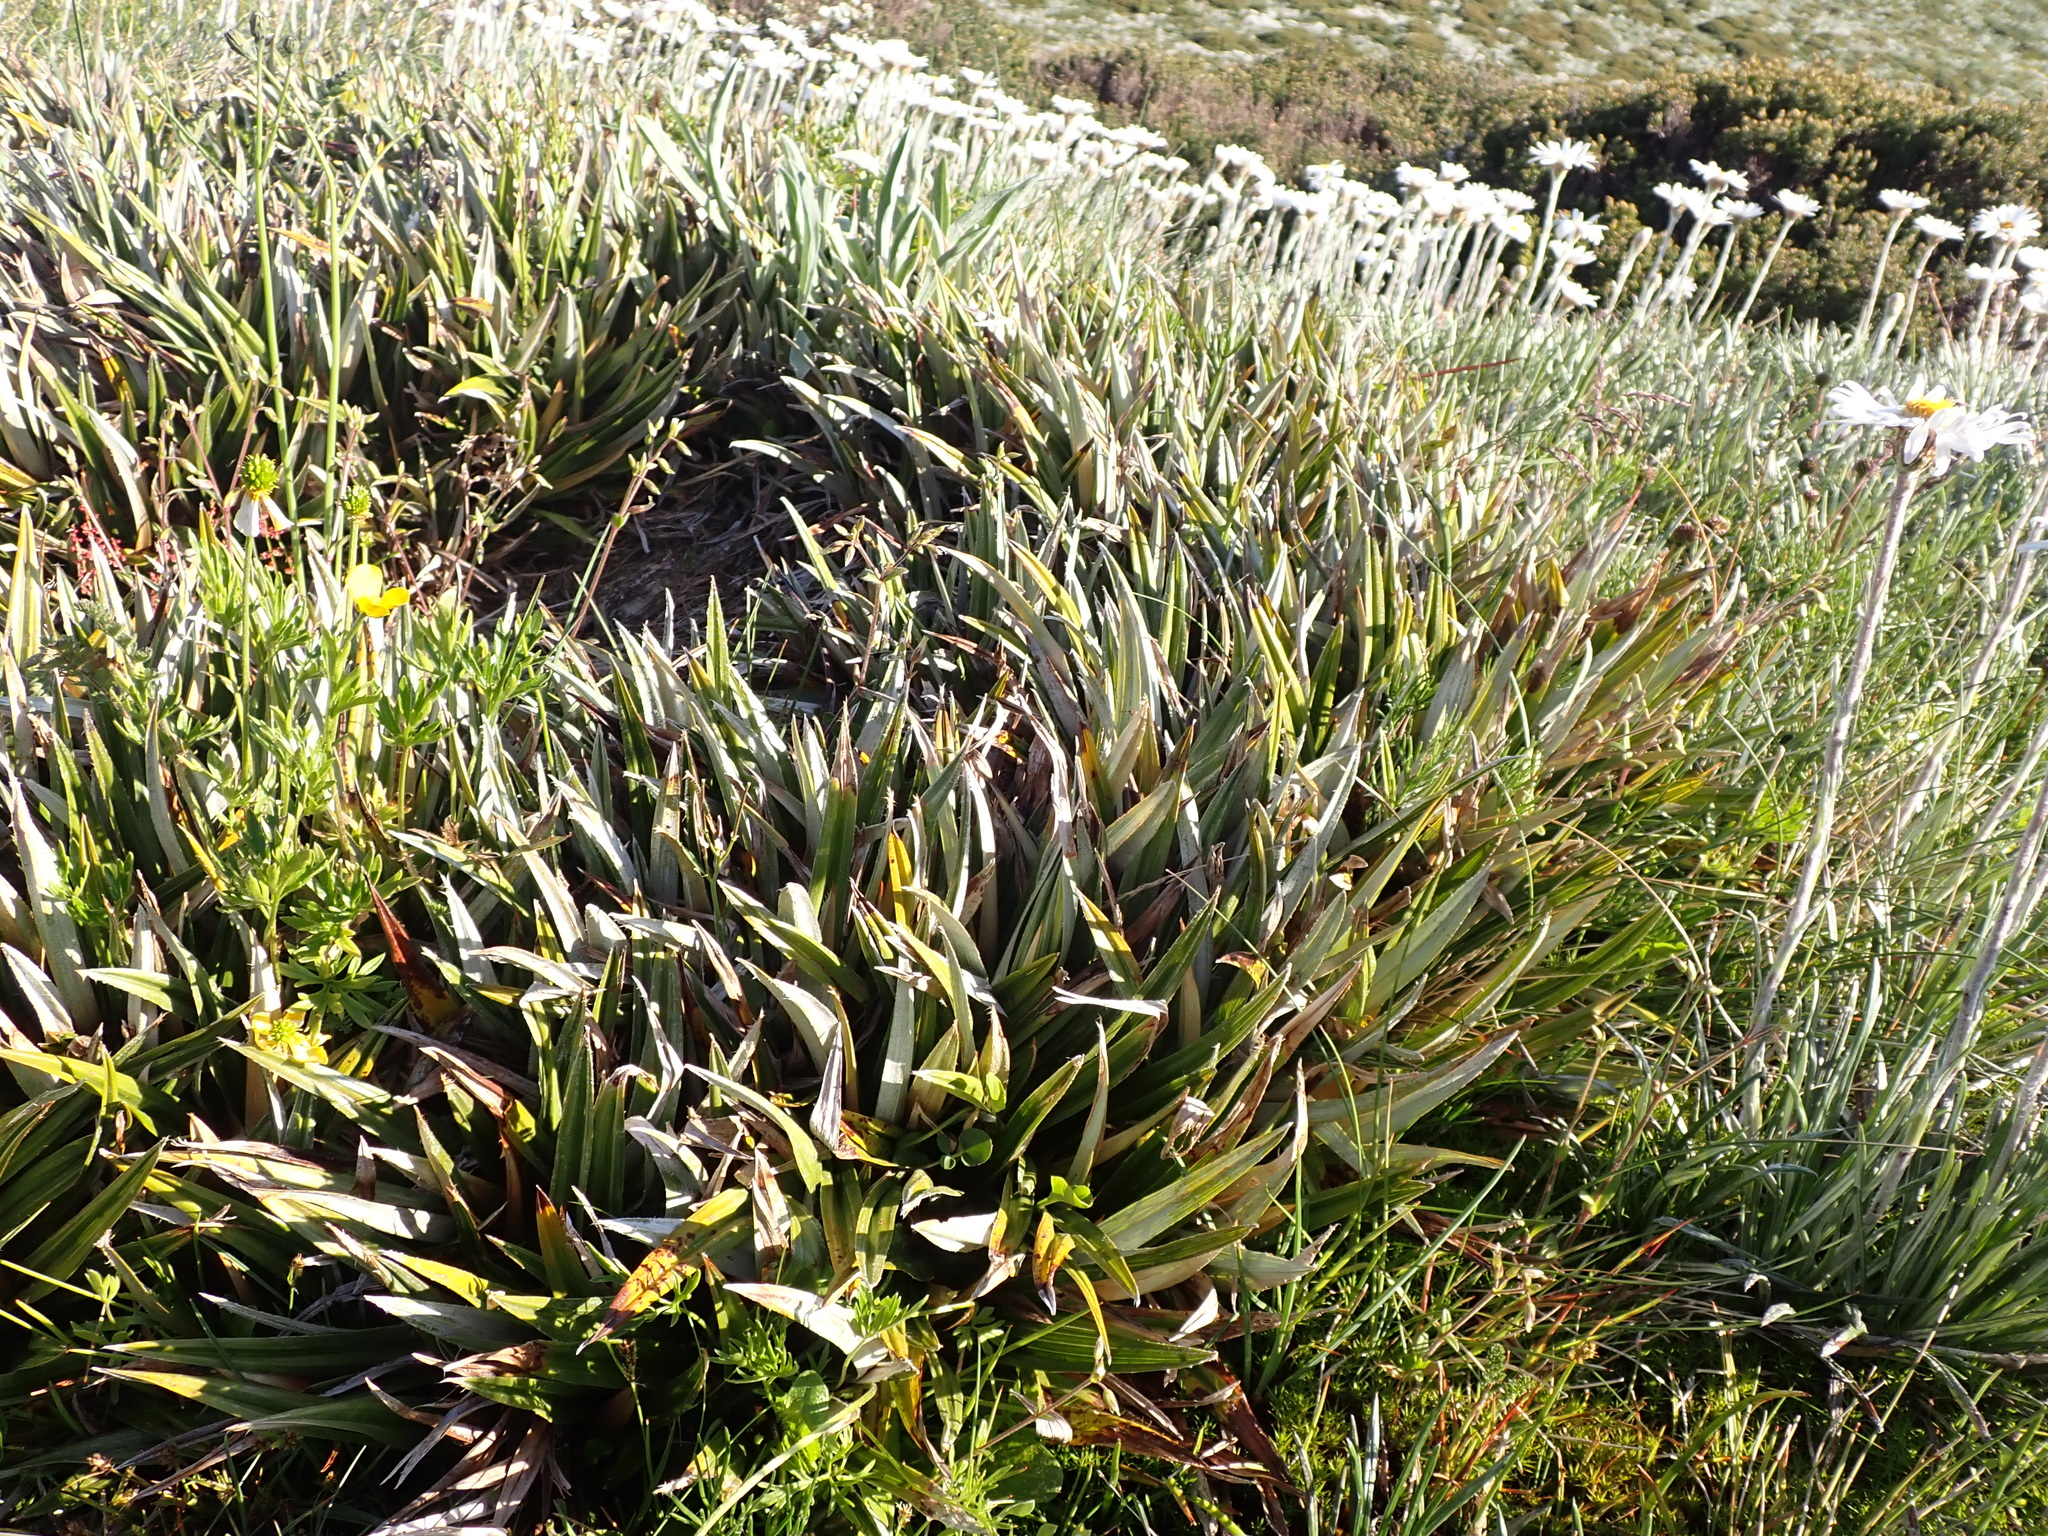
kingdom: Plantae
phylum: Tracheophyta
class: Liliopsida
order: Asparagales
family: Asteliaceae
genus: Astelia
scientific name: Astelia alpina
